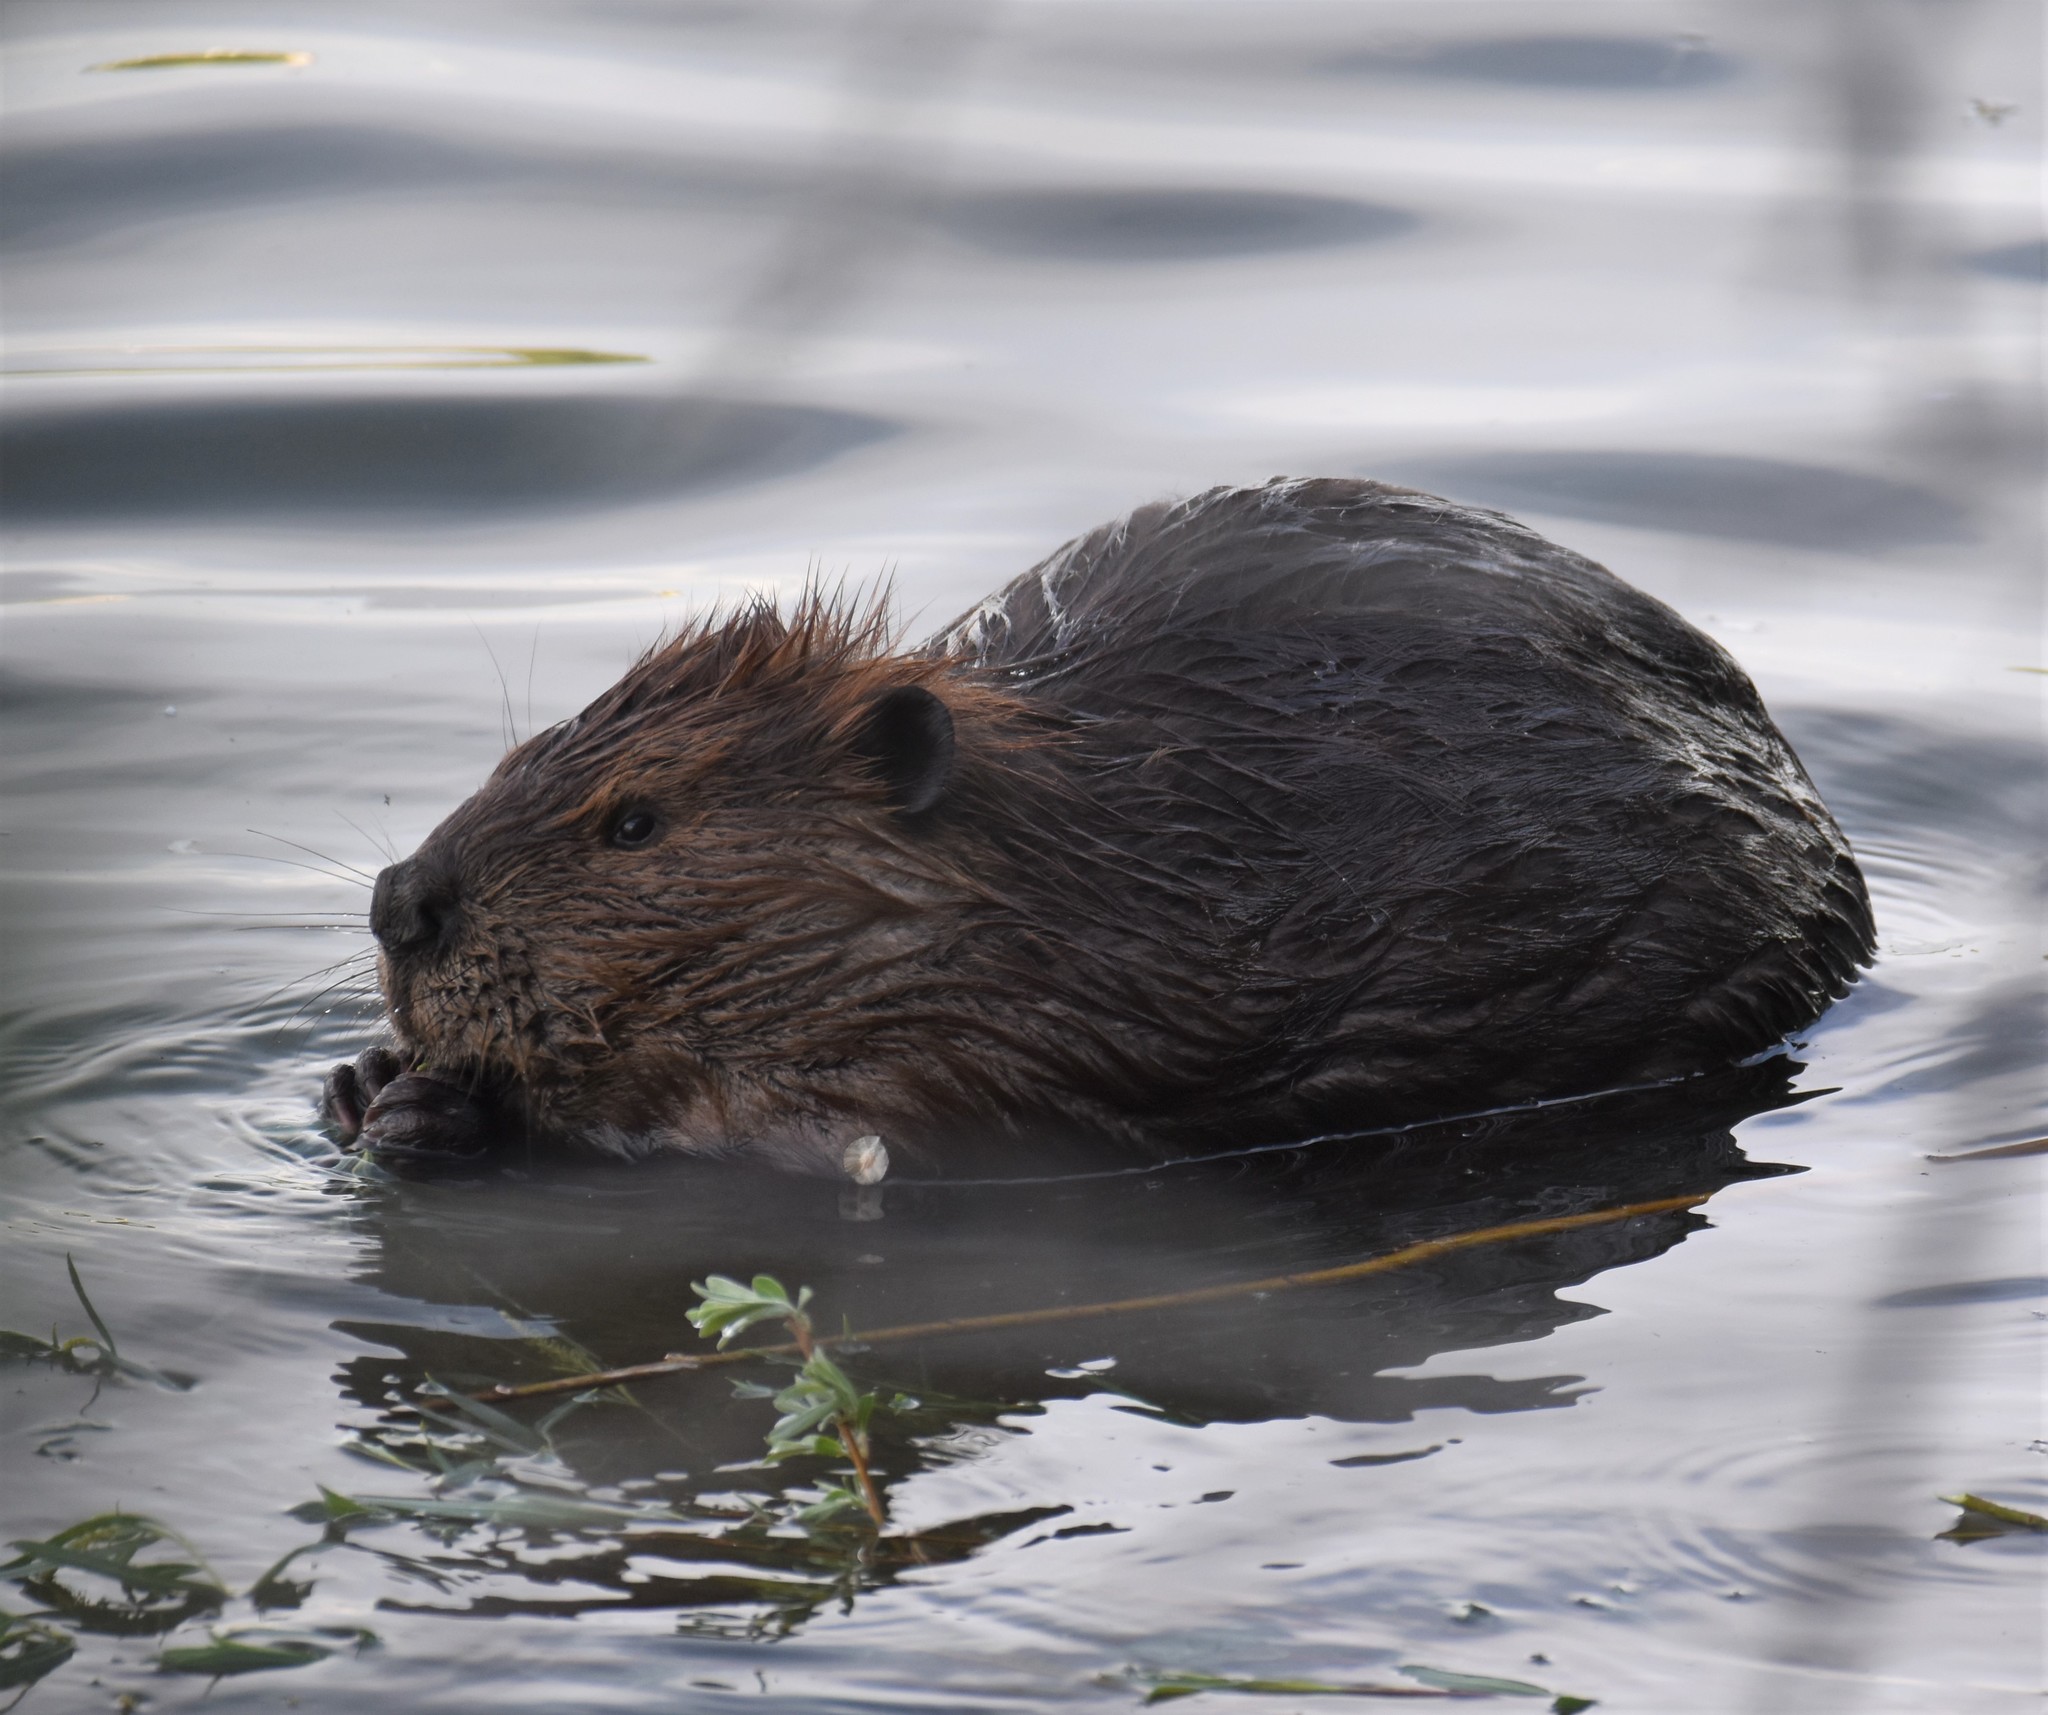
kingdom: Animalia
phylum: Chordata
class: Mammalia
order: Rodentia
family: Castoridae
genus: Castor
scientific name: Castor canadensis
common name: American beaver
